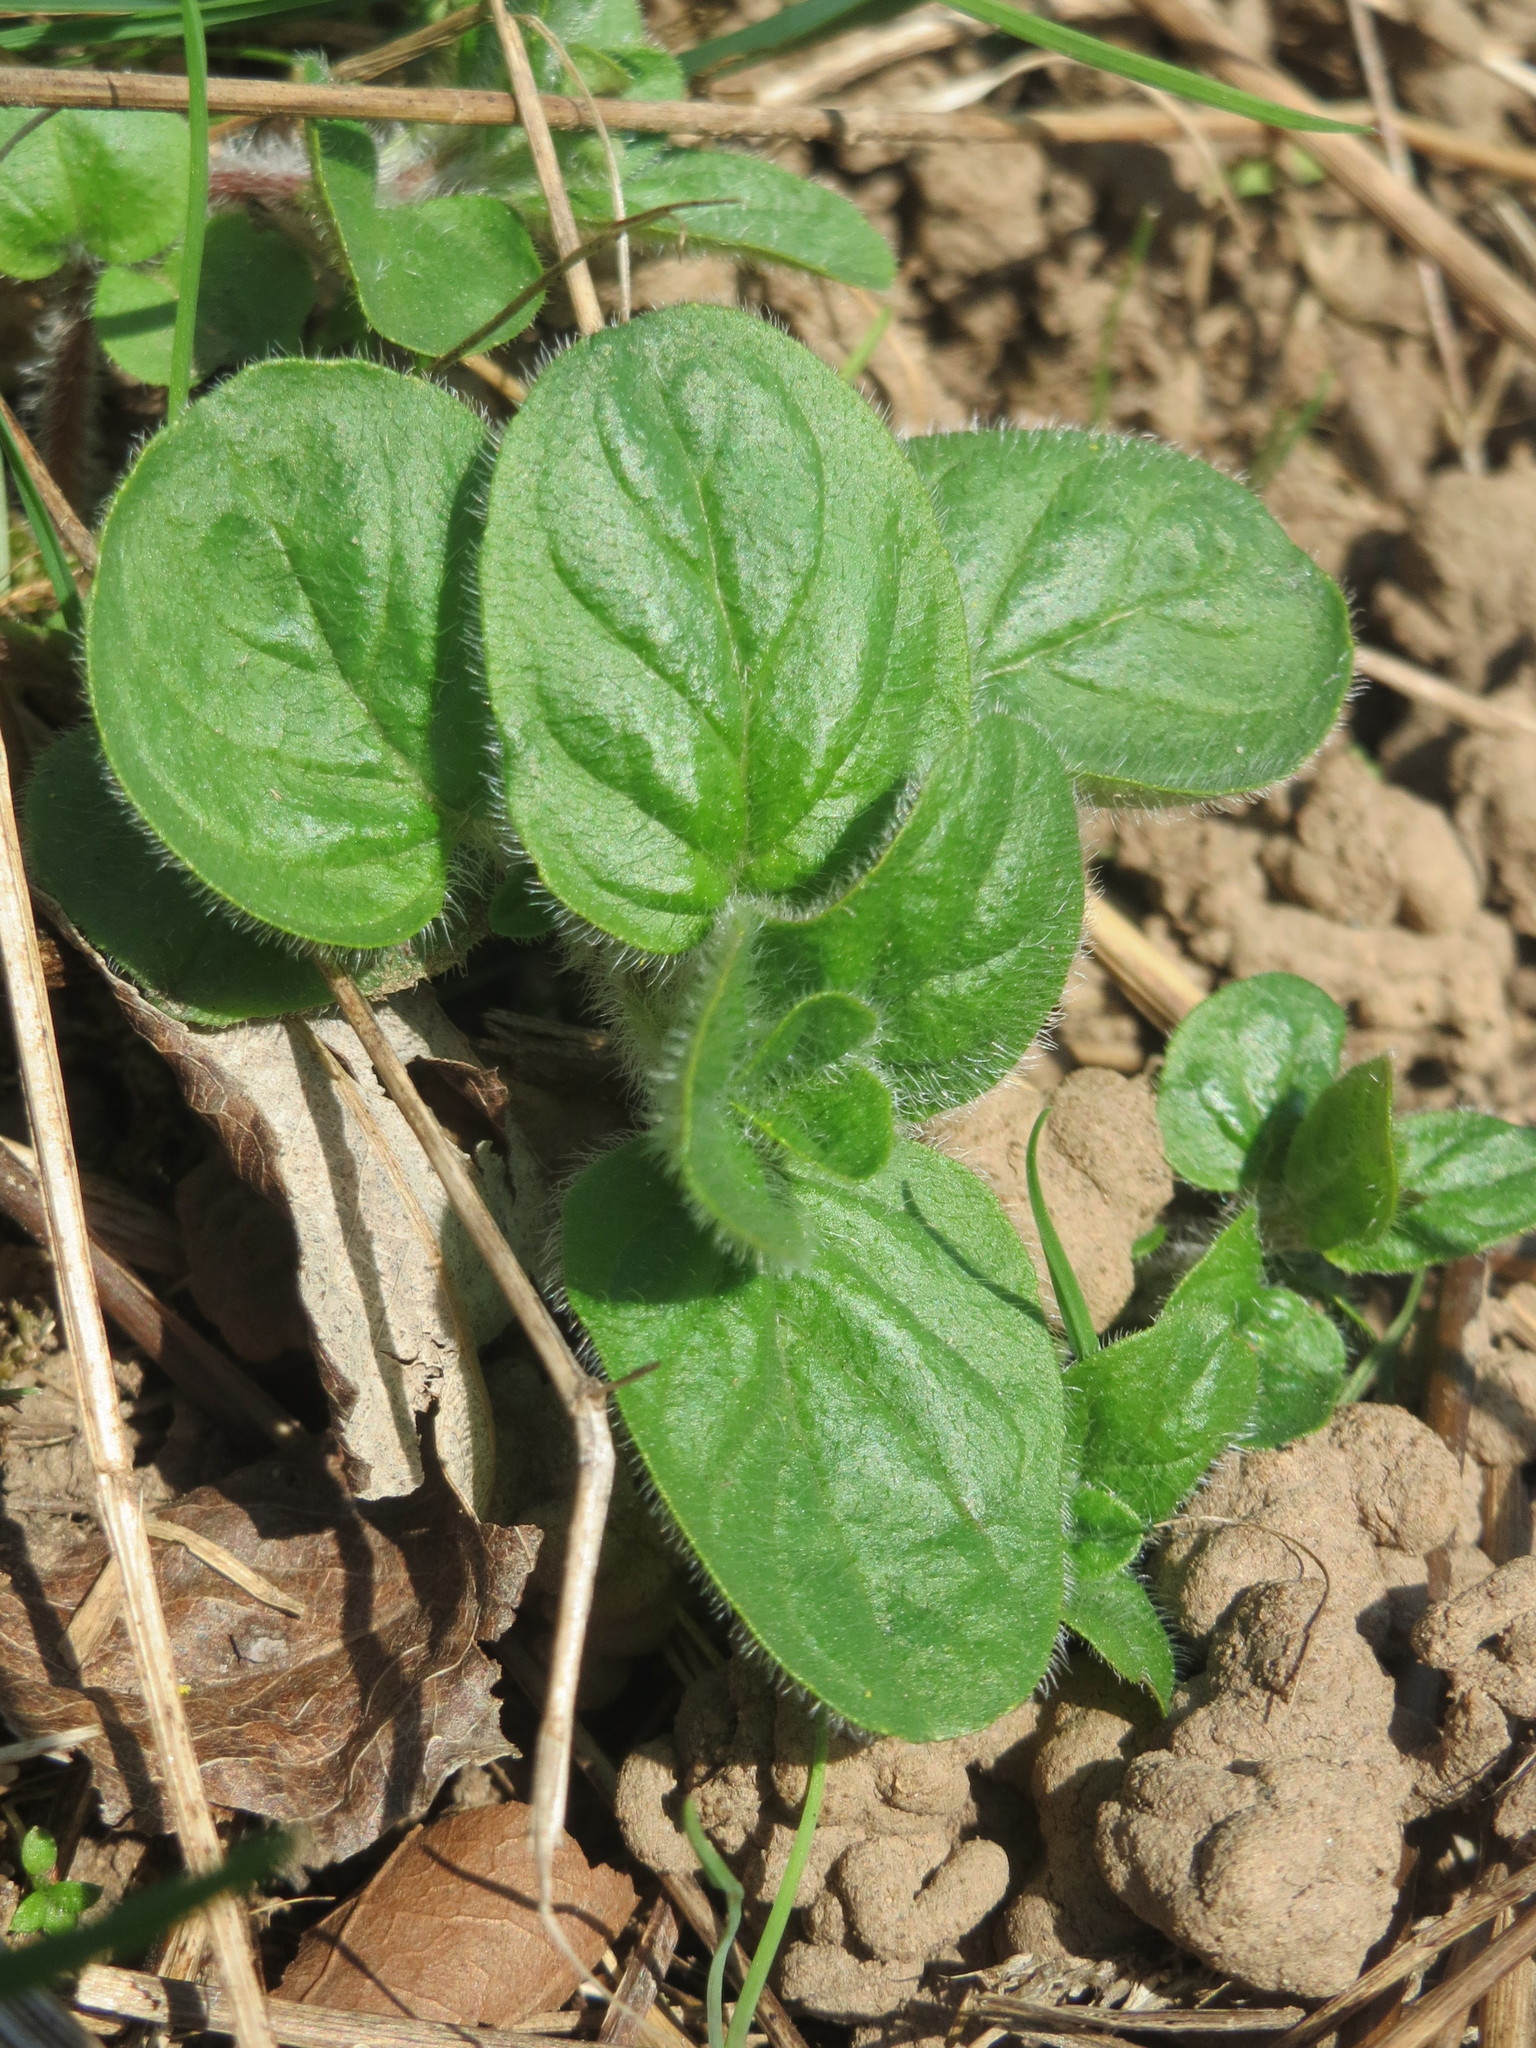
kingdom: Plantae
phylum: Tracheophyta
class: Magnoliopsida
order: Lamiales
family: Lamiaceae
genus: Origanum
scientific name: Origanum vulgare
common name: Wild marjoram
